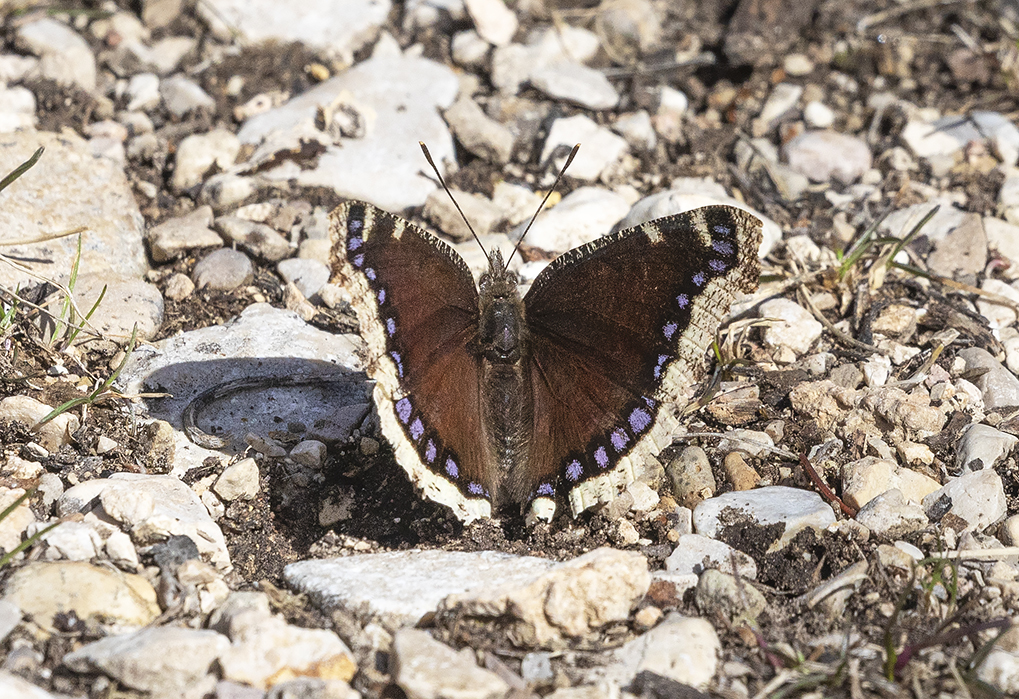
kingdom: Animalia
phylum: Arthropoda
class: Insecta
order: Lepidoptera
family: Nymphalidae
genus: Nymphalis
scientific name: Nymphalis antiopa
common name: Camberwell beauty
